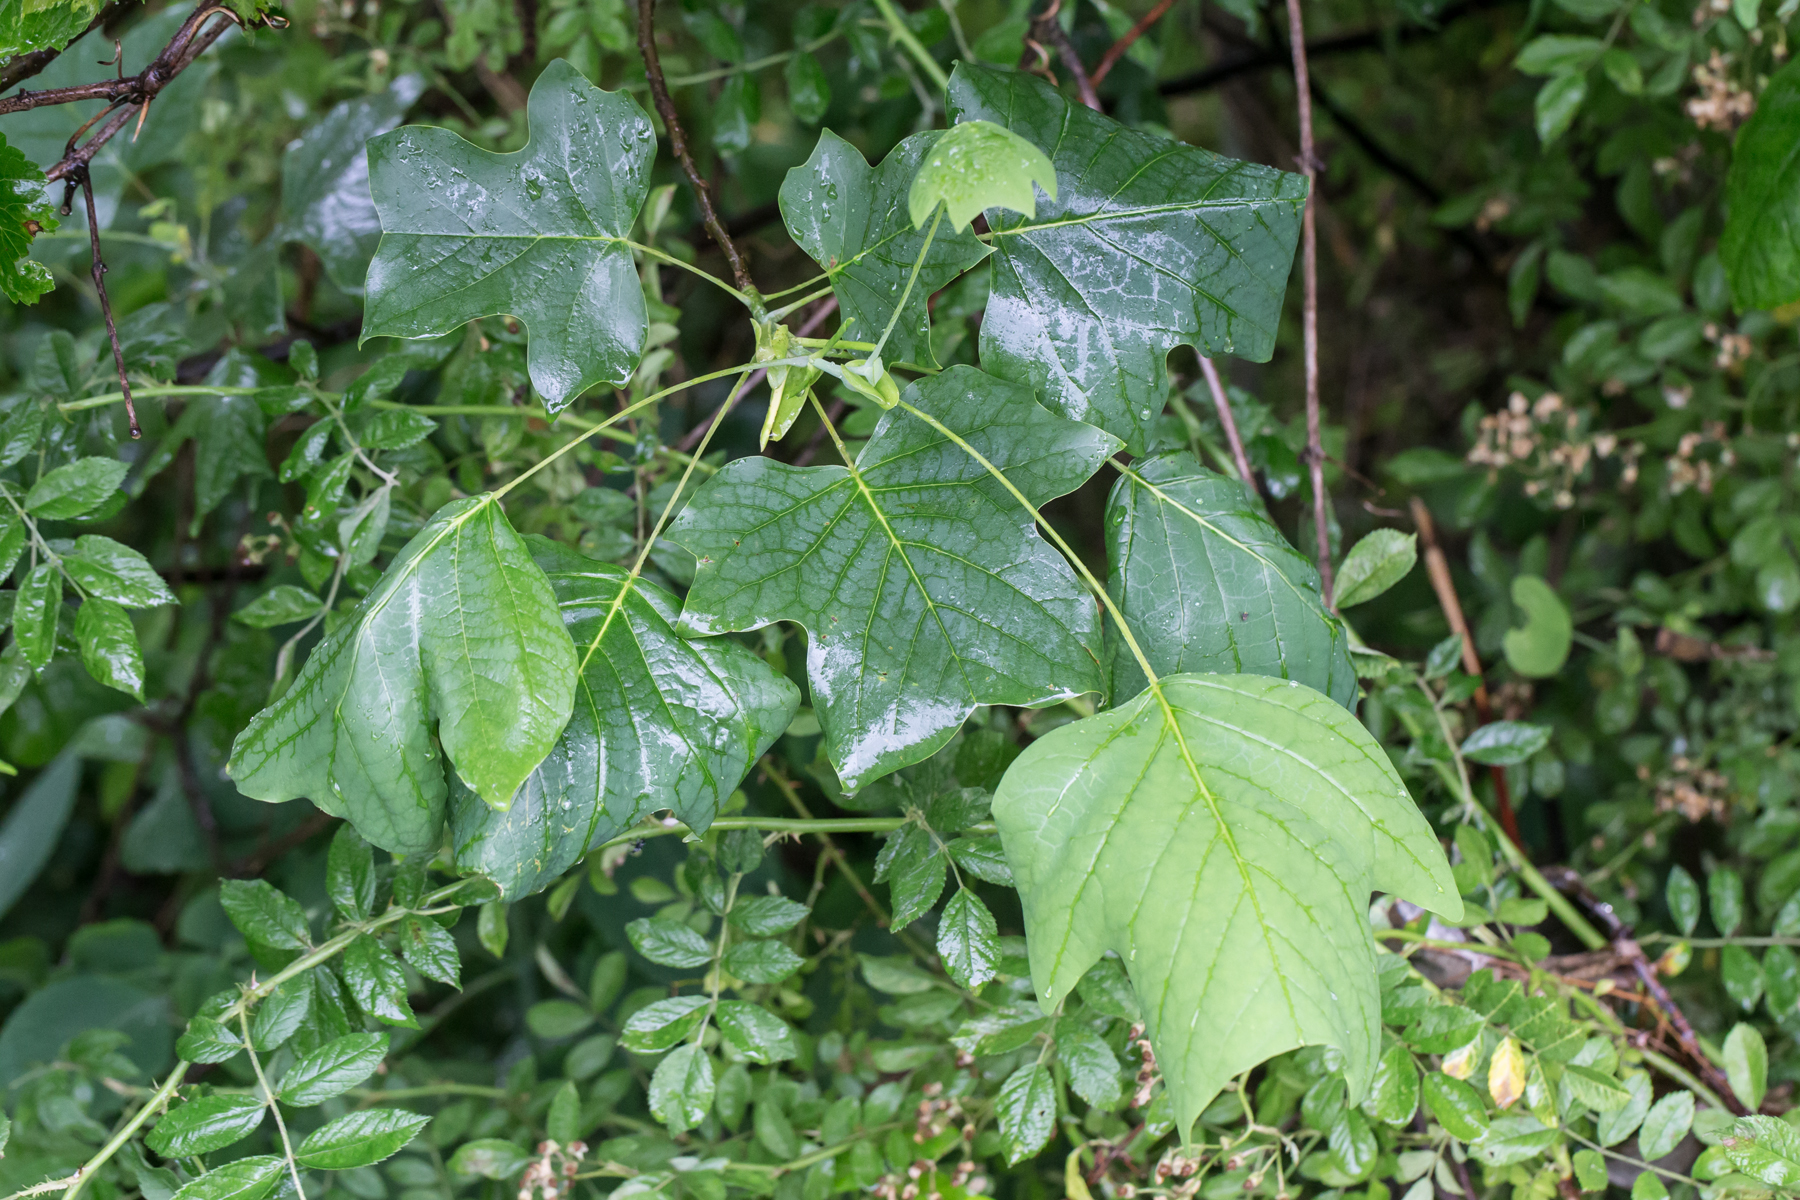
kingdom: Plantae
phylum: Tracheophyta
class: Magnoliopsida
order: Magnoliales
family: Magnoliaceae
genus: Liriodendron
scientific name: Liriodendron tulipifera
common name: Tulip tree
